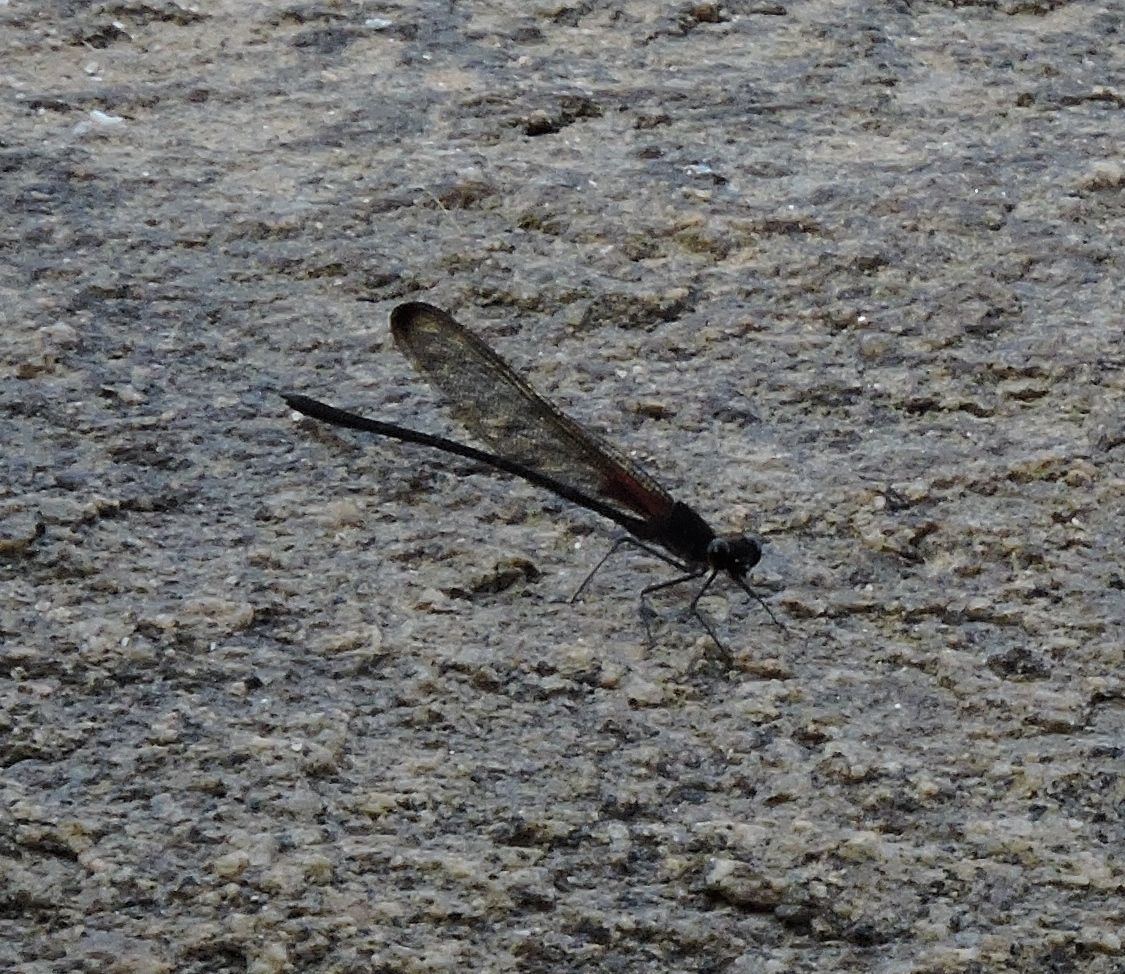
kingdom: Animalia
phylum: Arthropoda
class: Insecta
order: Odonata
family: Calopterygidae
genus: Hetaerina
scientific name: Hetaerina titia
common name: Smoky rubyspot
